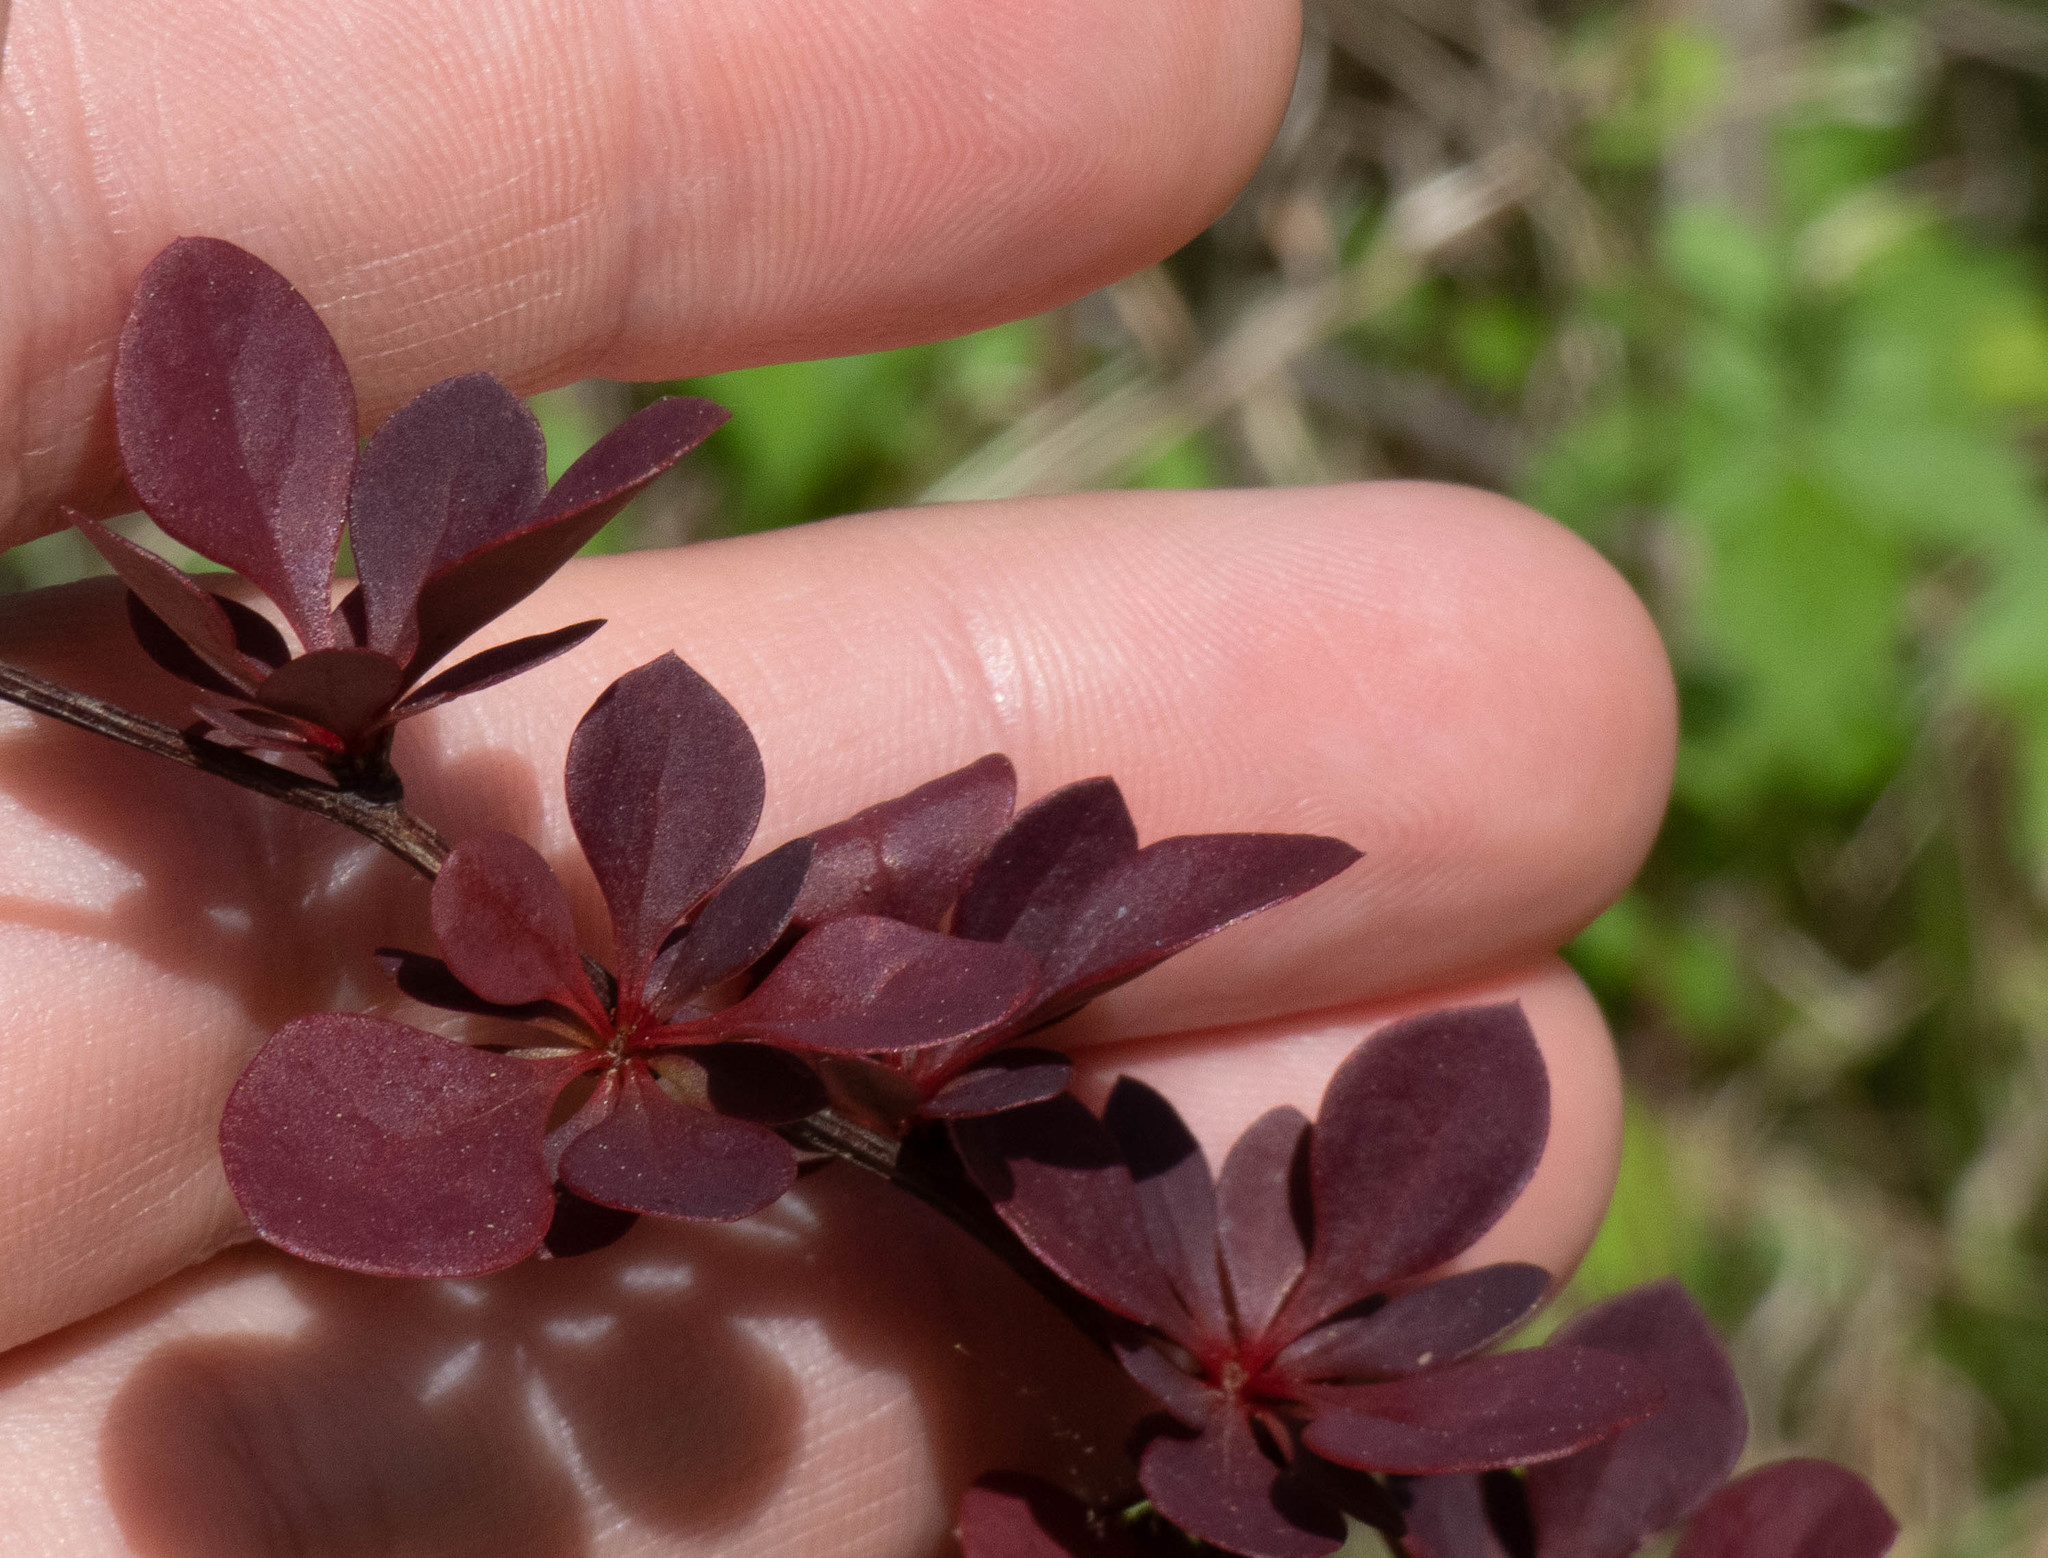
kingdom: Plantae
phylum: Tracheophyta
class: Magnoliopsida
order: Ranunculales
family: Berberidaceae
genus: Berberis
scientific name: Berberis thunbergii
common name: Japanese barberry
